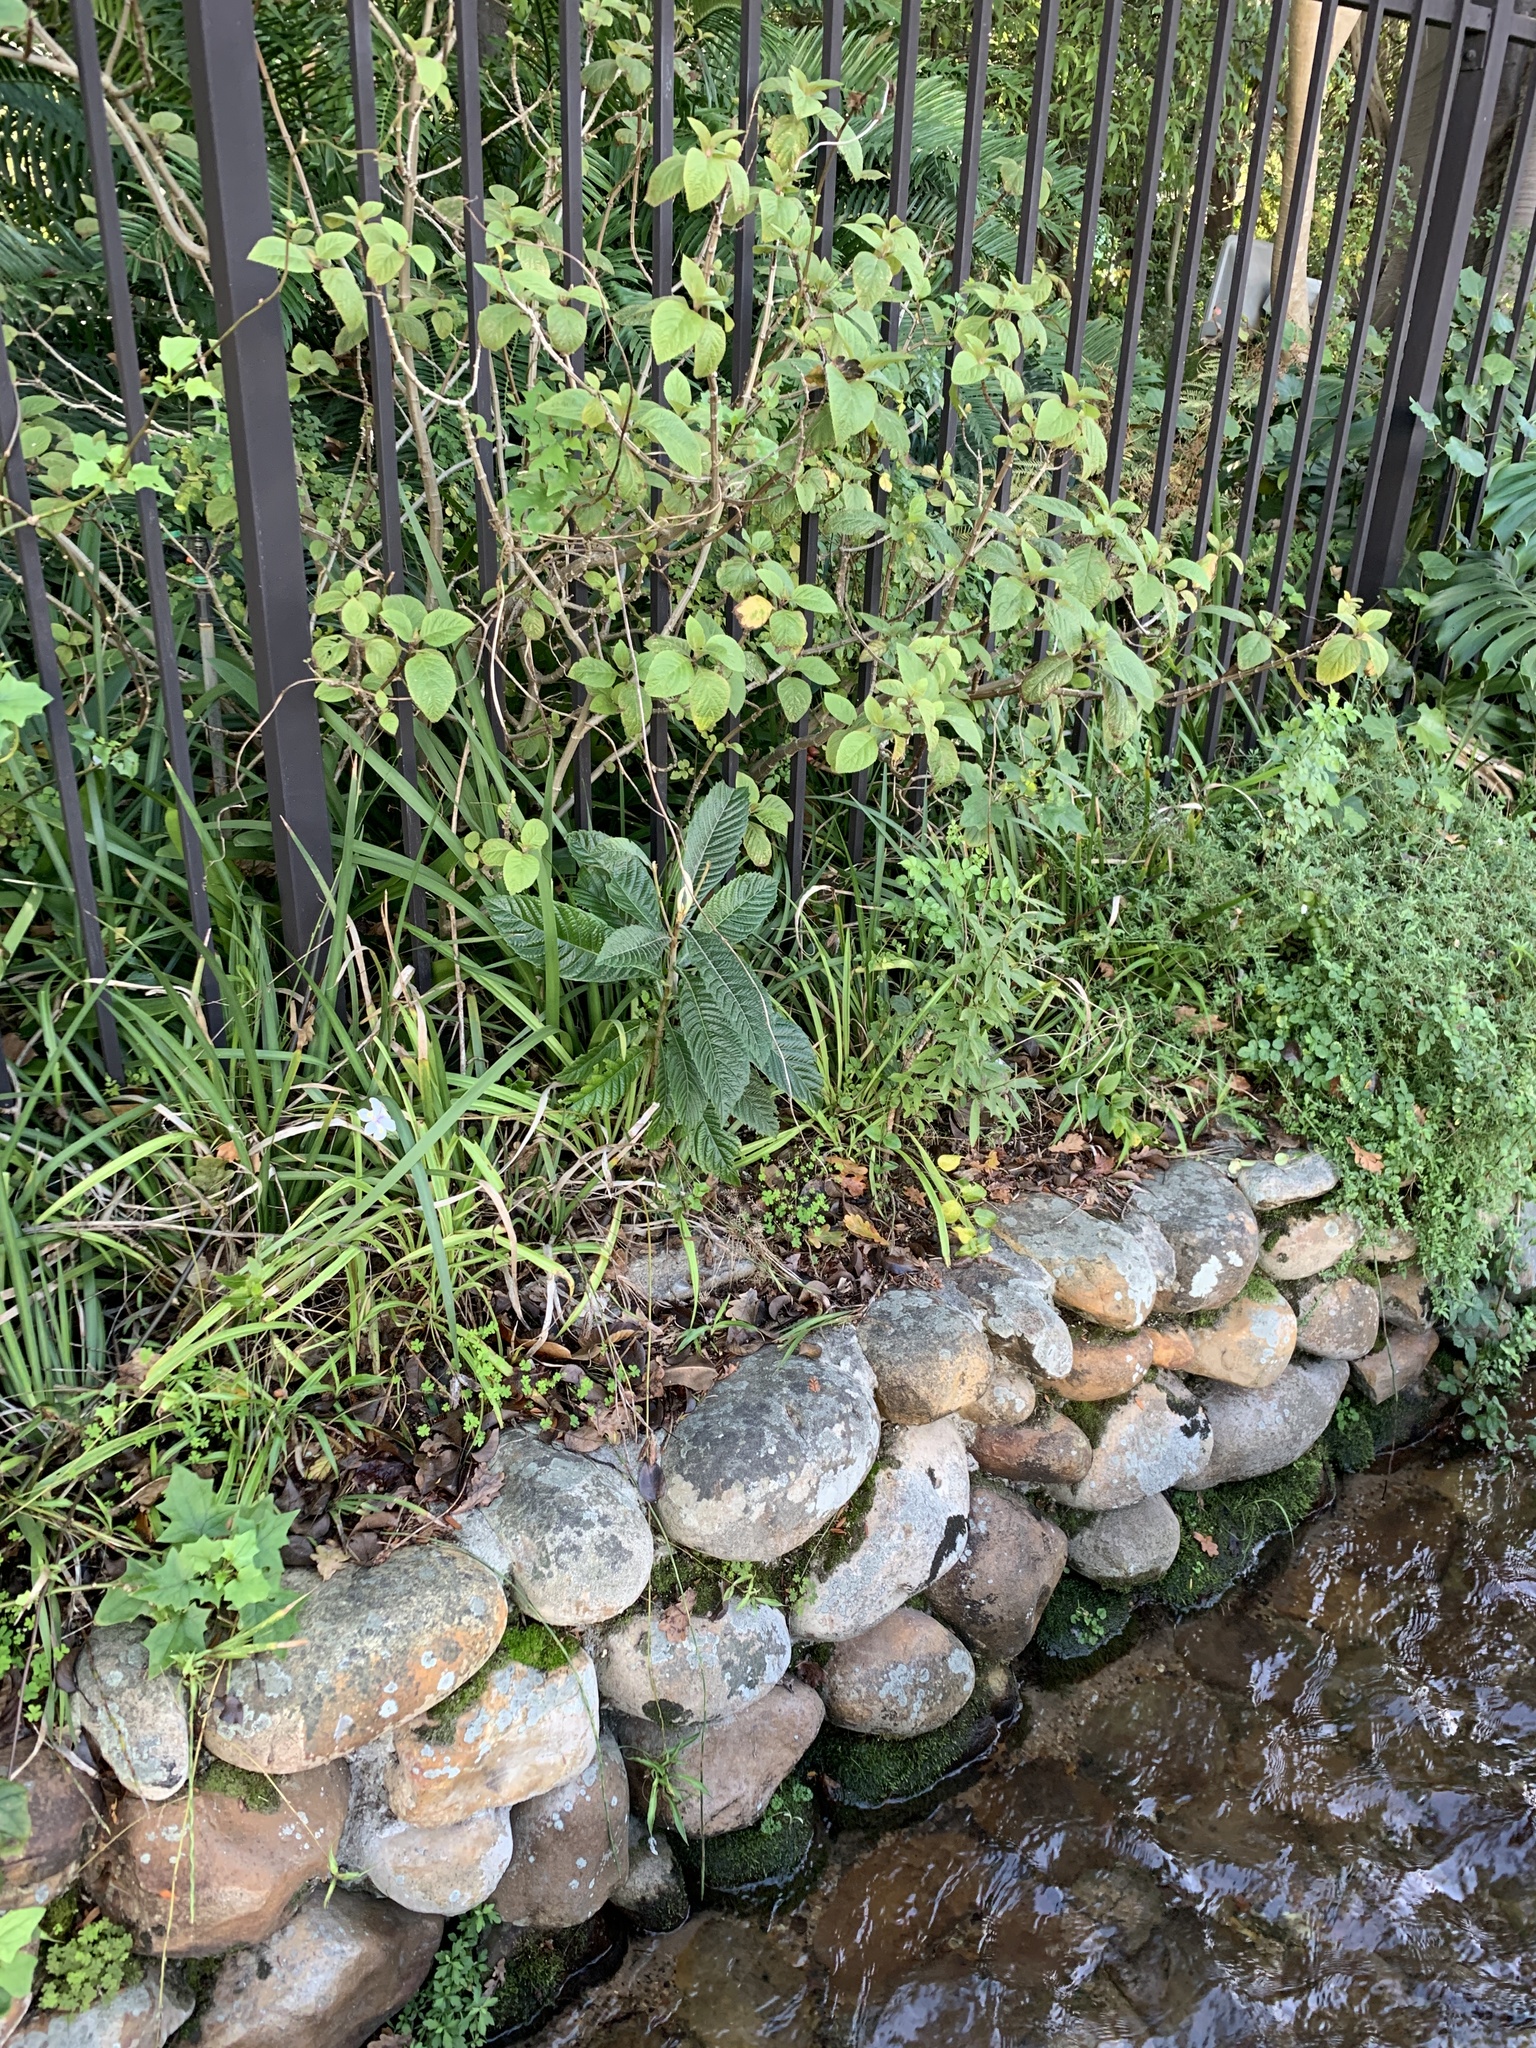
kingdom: Plantae
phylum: Tracheophyta
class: Magnoliopsida
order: Rosales
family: Rosaceae
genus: Rhaphiolepis
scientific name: Rhaphiolepis bibas
